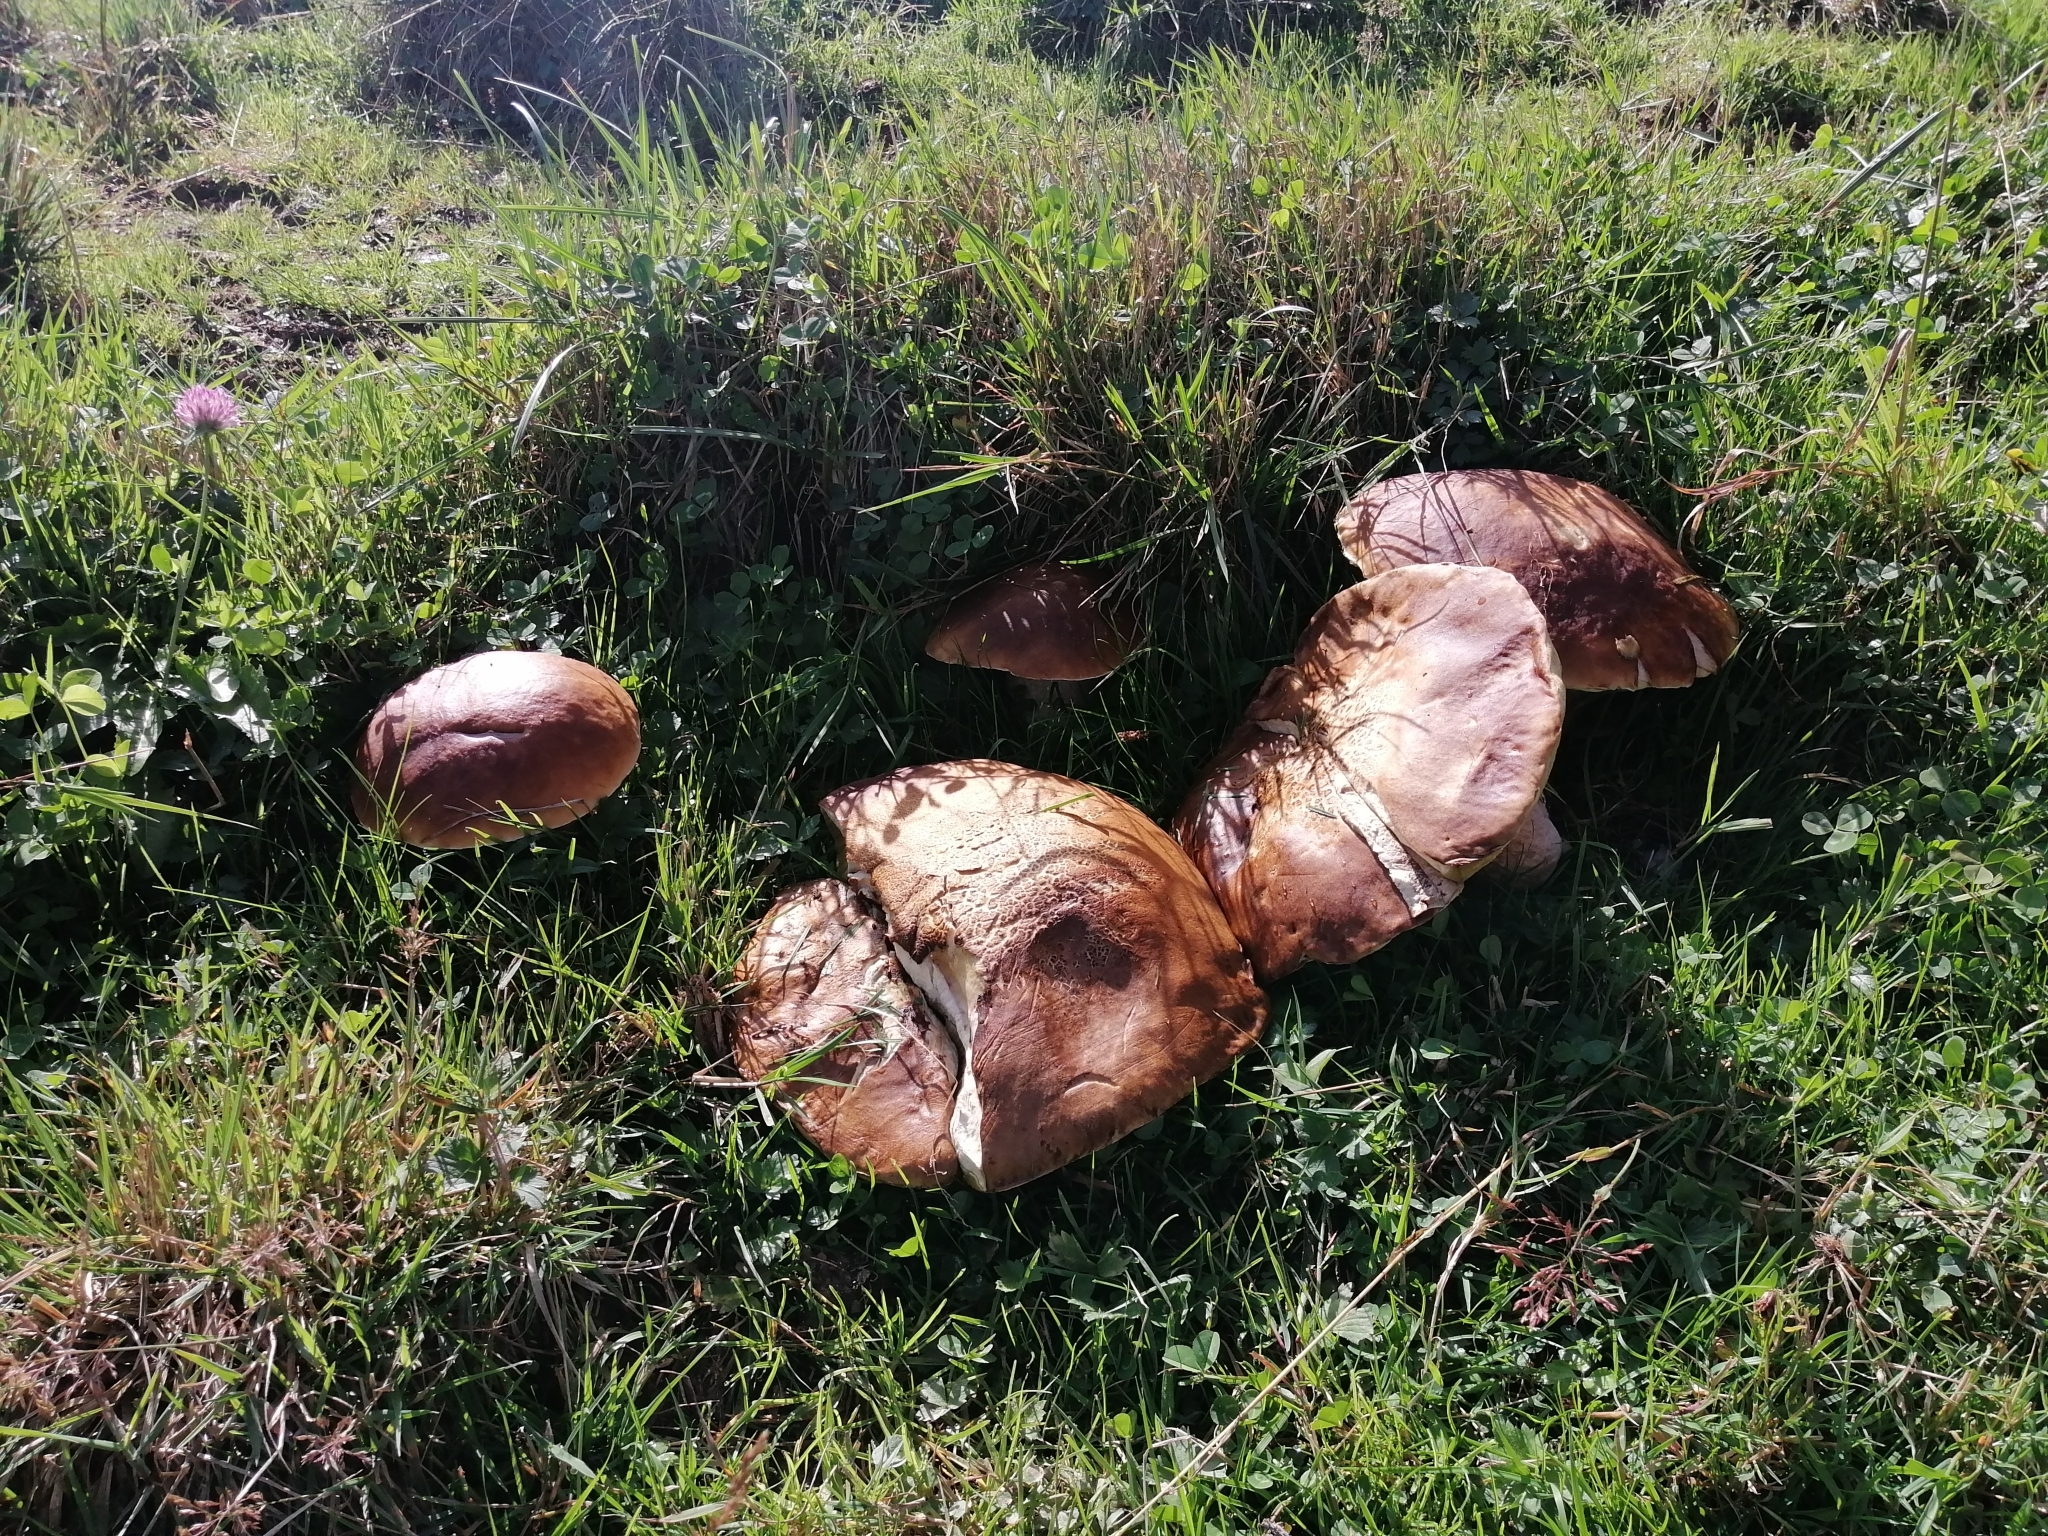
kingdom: Fungi
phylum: Basidiomycota
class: Agaricomycetes
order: Boletales
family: Boletaceae
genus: Boletus
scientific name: Boletus edulis
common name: Cep
